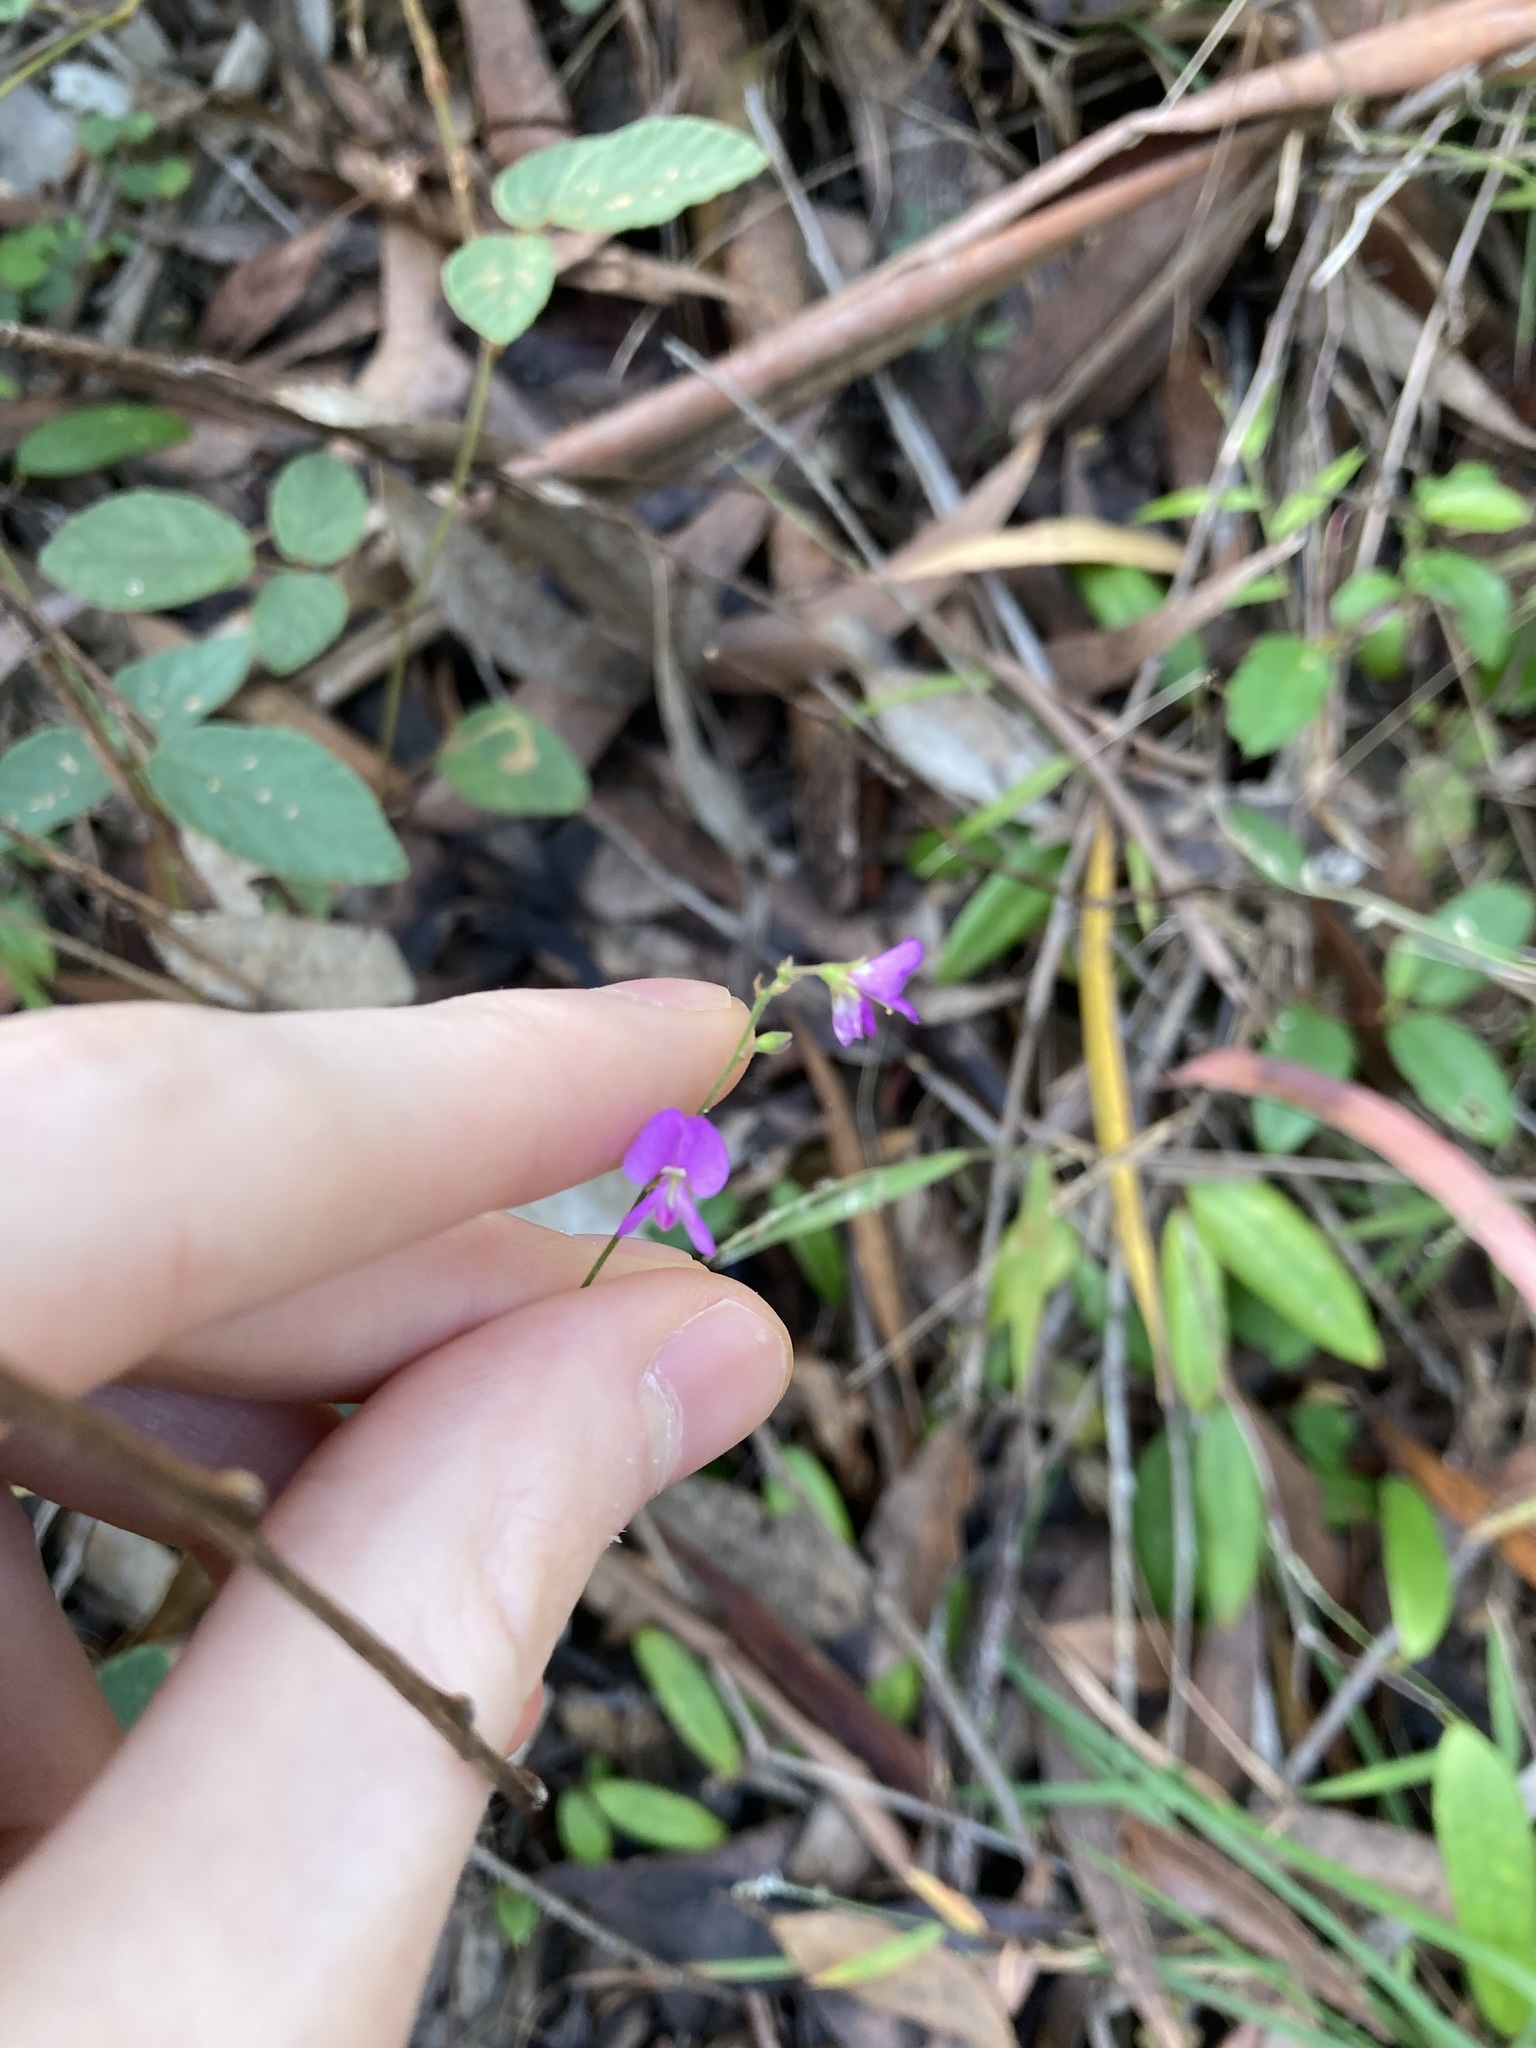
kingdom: Plantae
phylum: Tracheophyta
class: Magnoliopsida
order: Fabales
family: Fabaceae
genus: Maekawaea
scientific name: Maekawaea rhytidophylla
